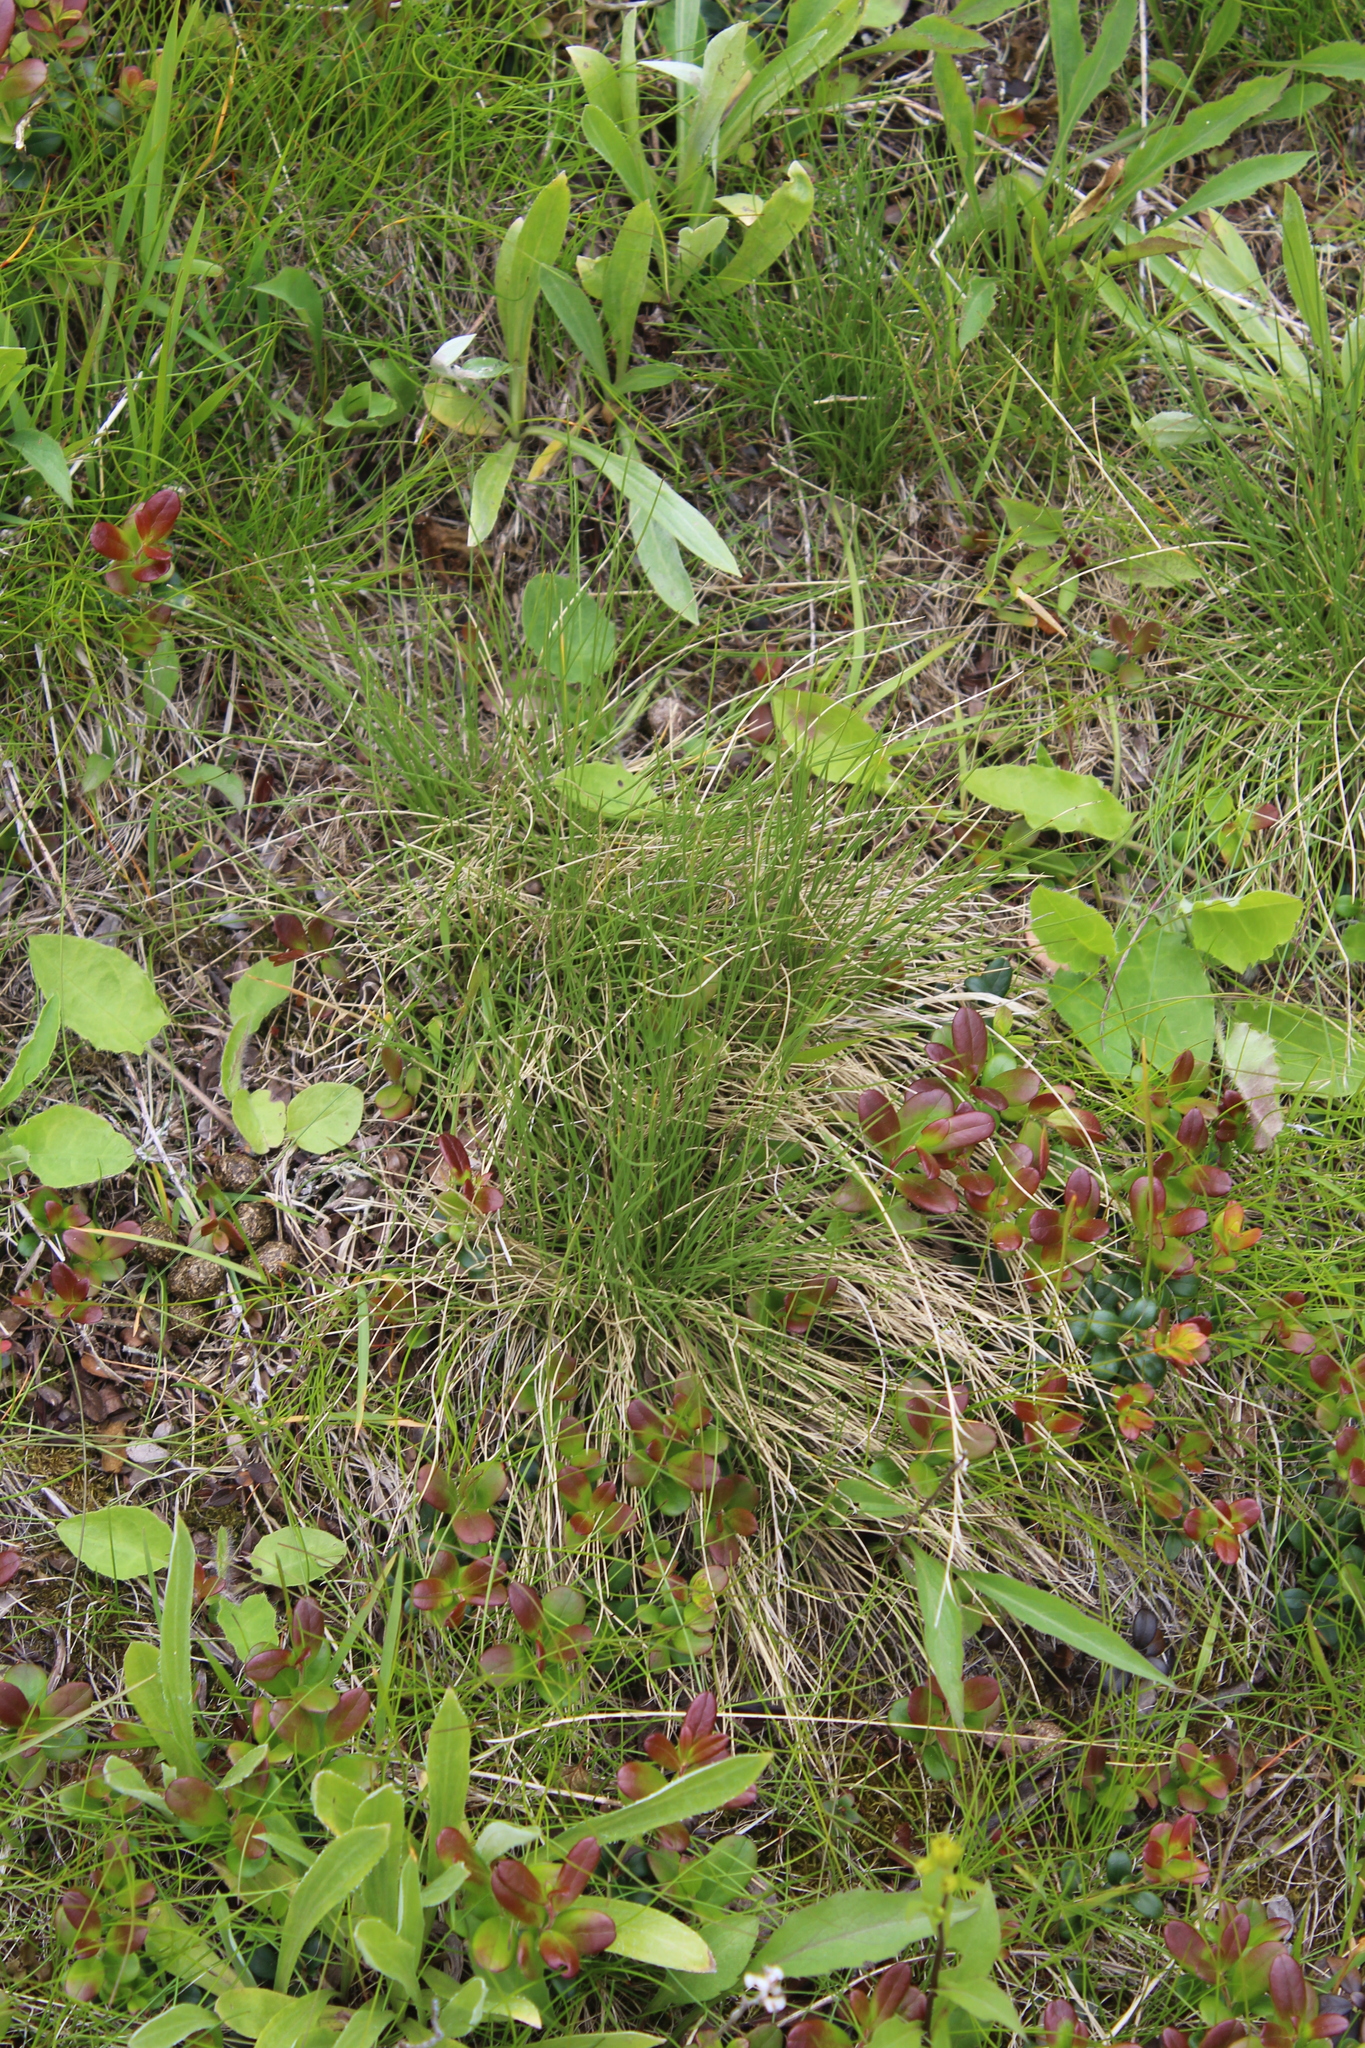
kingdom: Plantae
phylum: Tracheophyta
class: Liliopsida
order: Poales
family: Poaceae
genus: Nardus
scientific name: Nardus stricta
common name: Mat-grass
